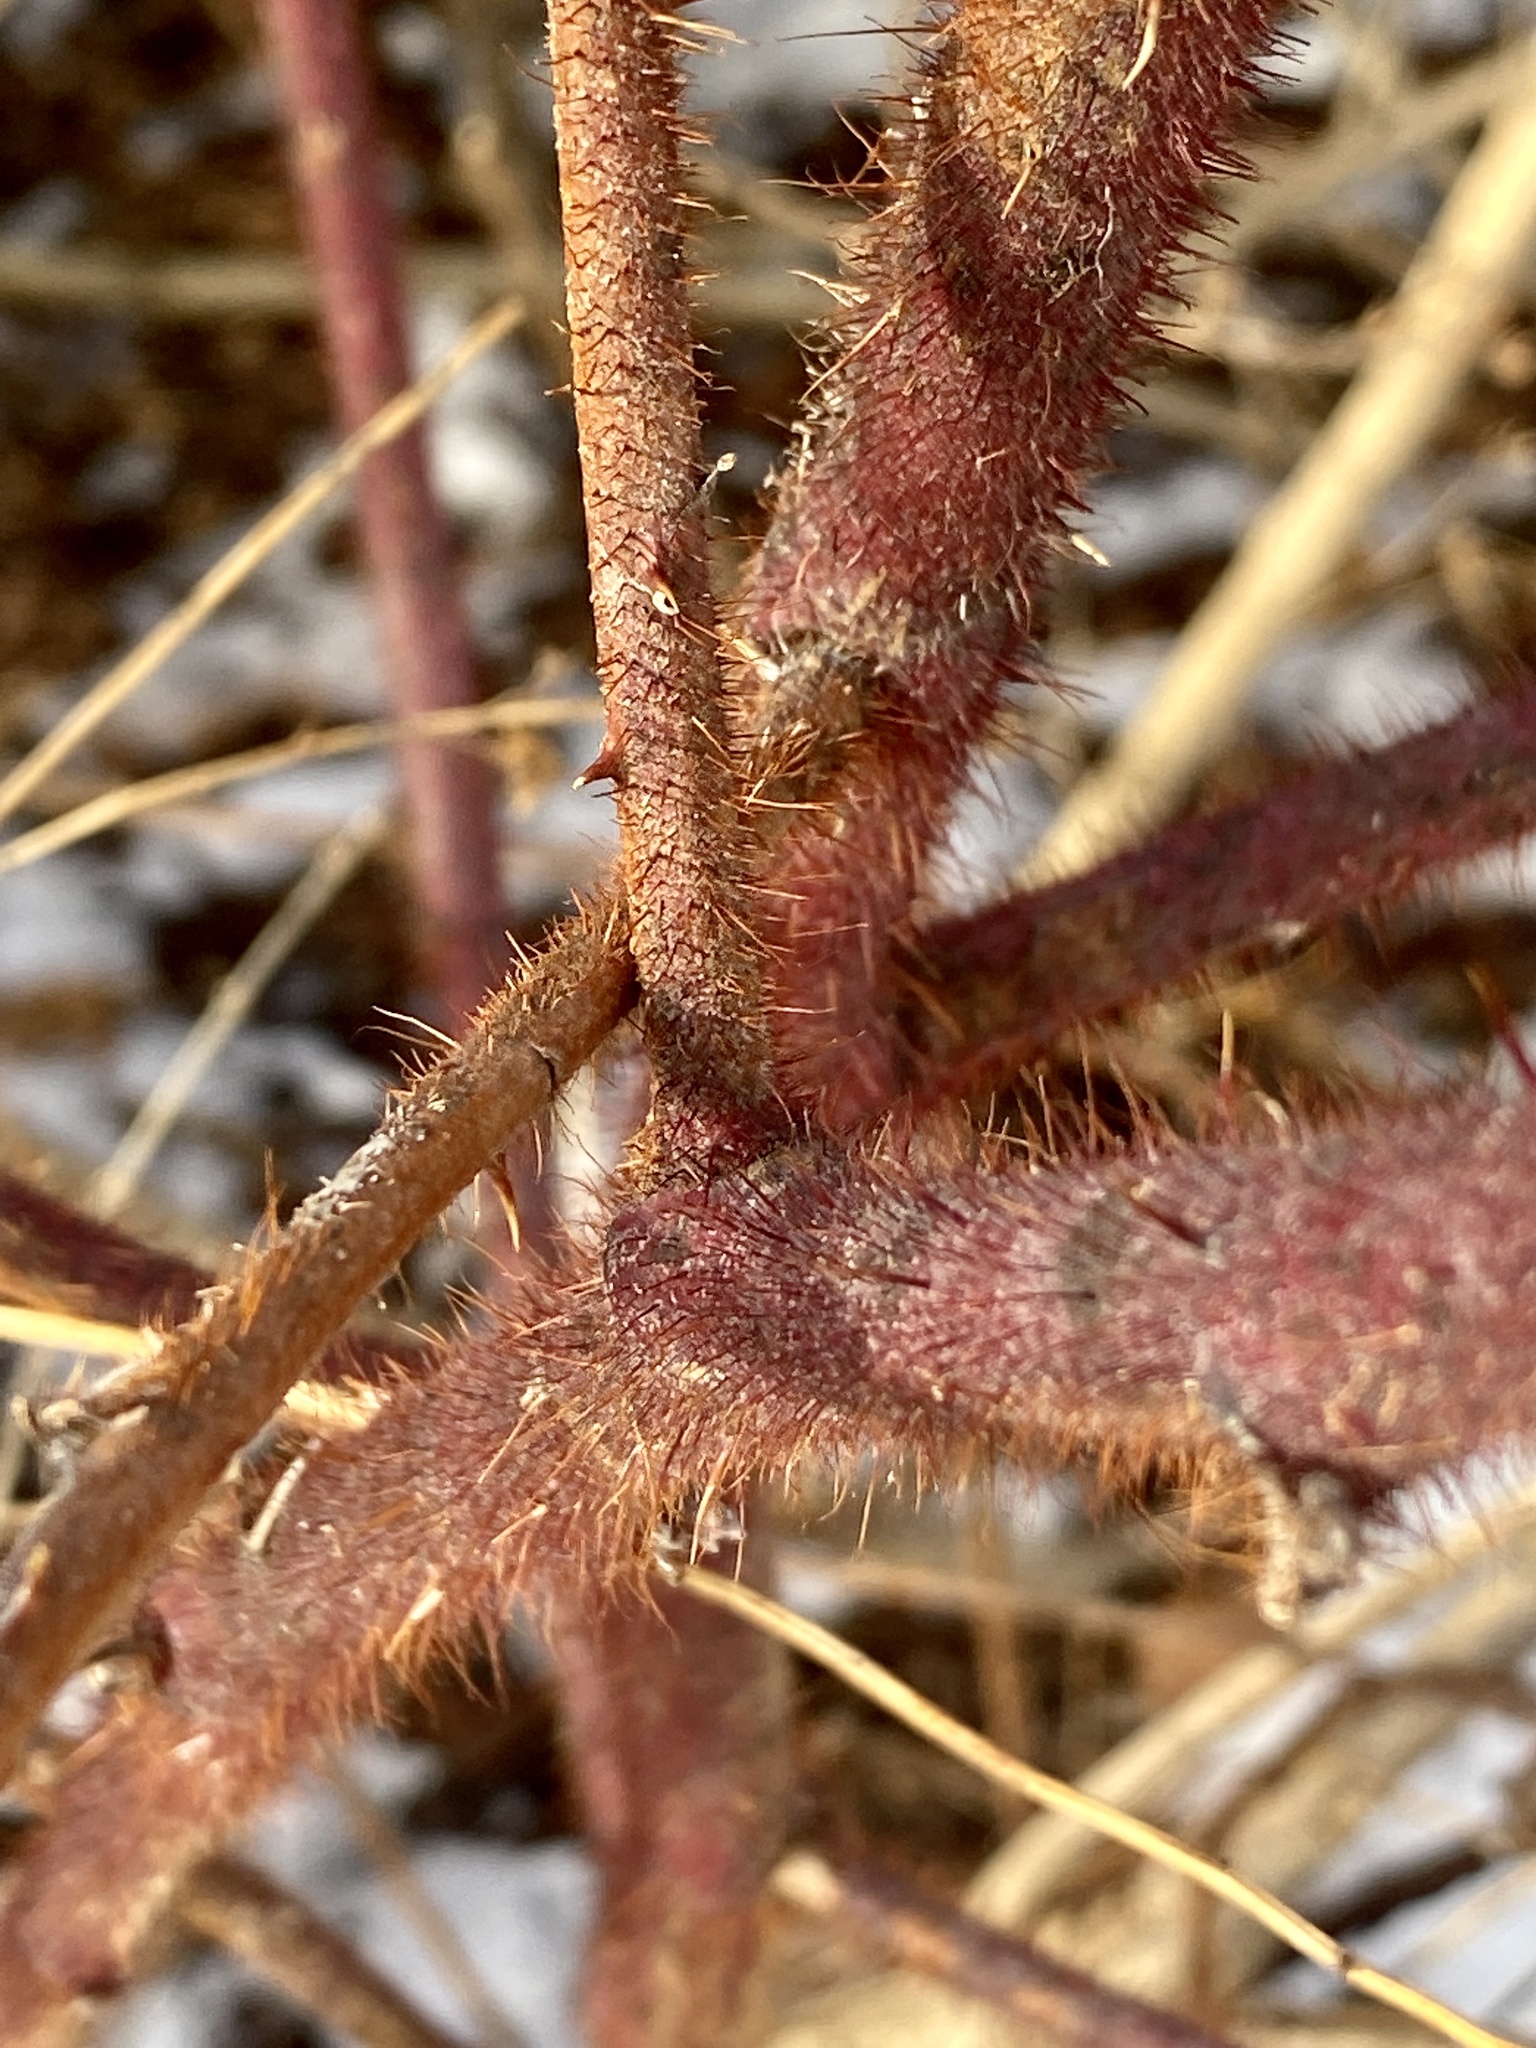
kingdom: Plantae
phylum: Tracheophyta
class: Magnoliopsida
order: Rosales
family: Rosaceae
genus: Rubus
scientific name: Rubus phoenicolasius
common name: Japanese wineberry
